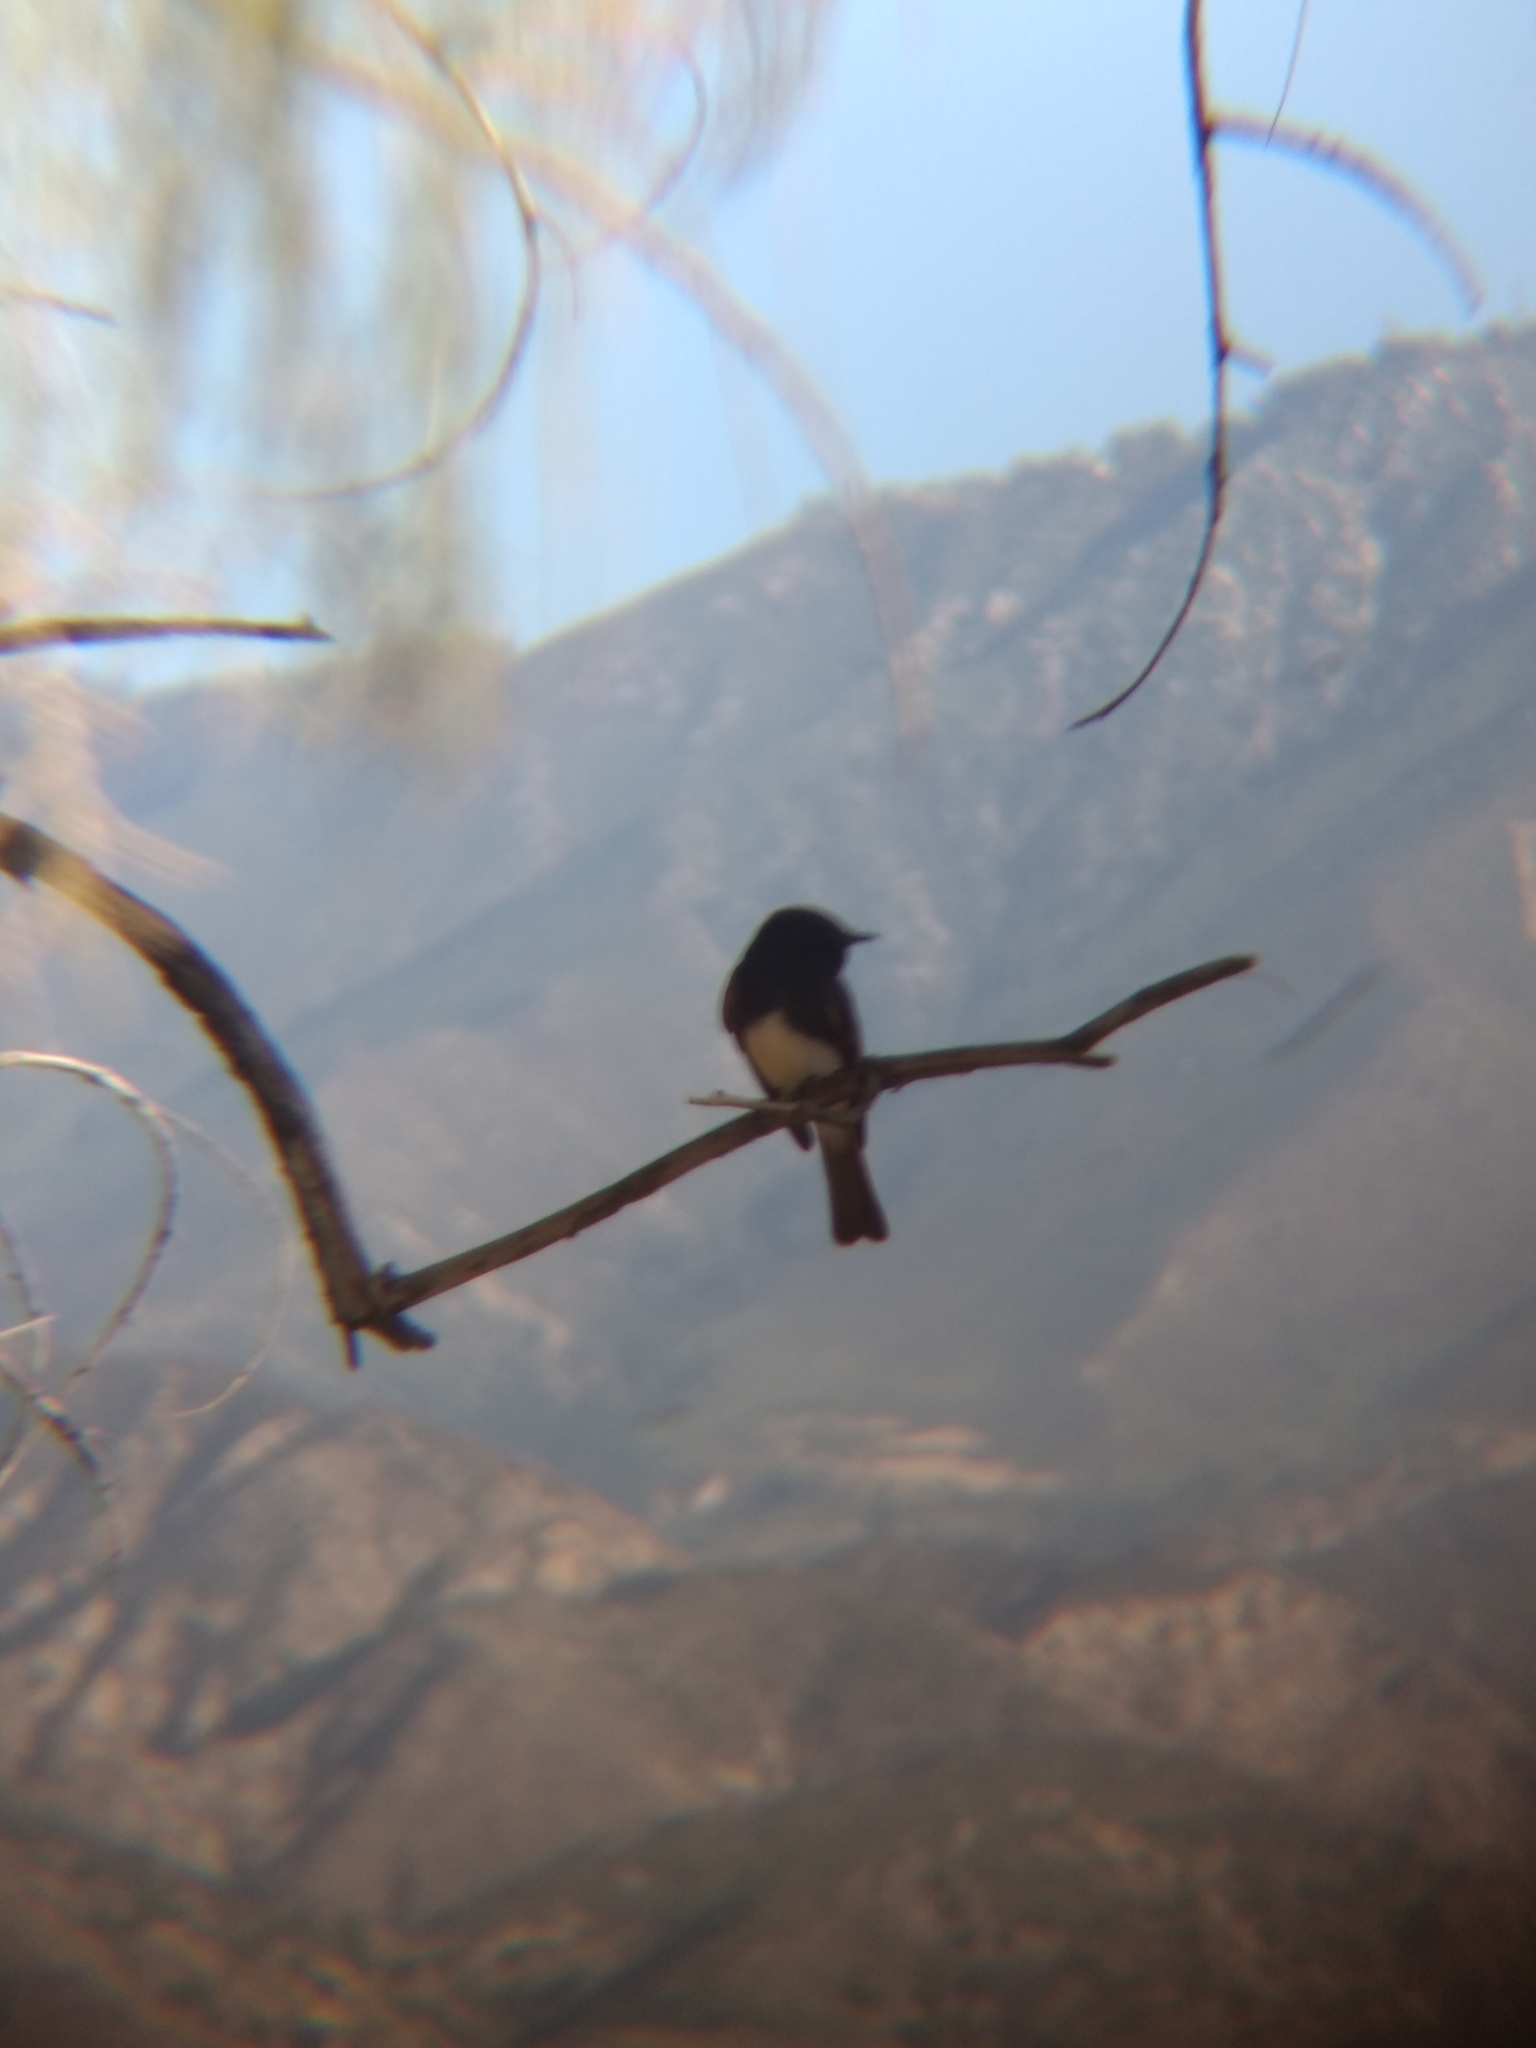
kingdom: Animalia
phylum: Chordata
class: Aves
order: Passeriformes
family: Tyrannidae
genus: Sayornis
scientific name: Sayornis nigricans
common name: Black phoebe
